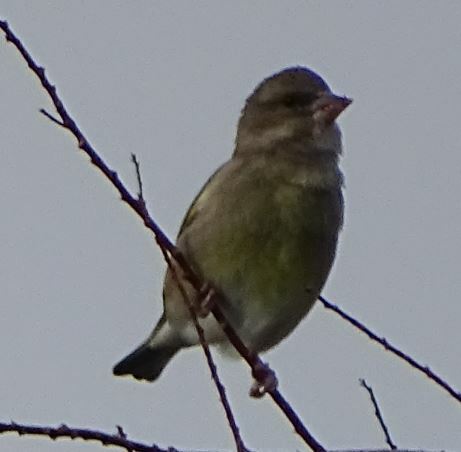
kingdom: Plantae
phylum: Tracheophyta
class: Liliopsida
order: Poales
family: Poaceae
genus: Chloris
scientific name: Chloris chloris
